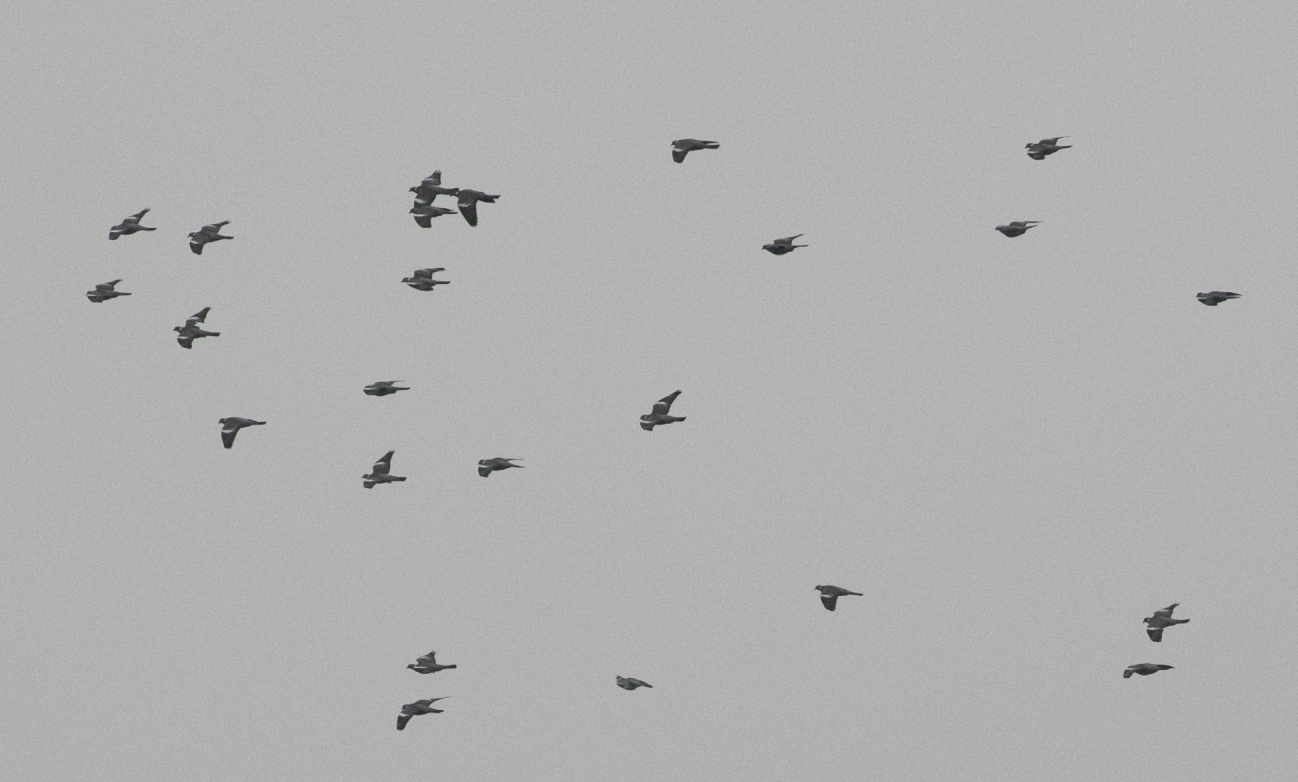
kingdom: Animalia
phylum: Chordata
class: Aves
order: Columbiformes
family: Columbidae
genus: Columba
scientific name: Columba palumbus
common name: Common wood pigeon
